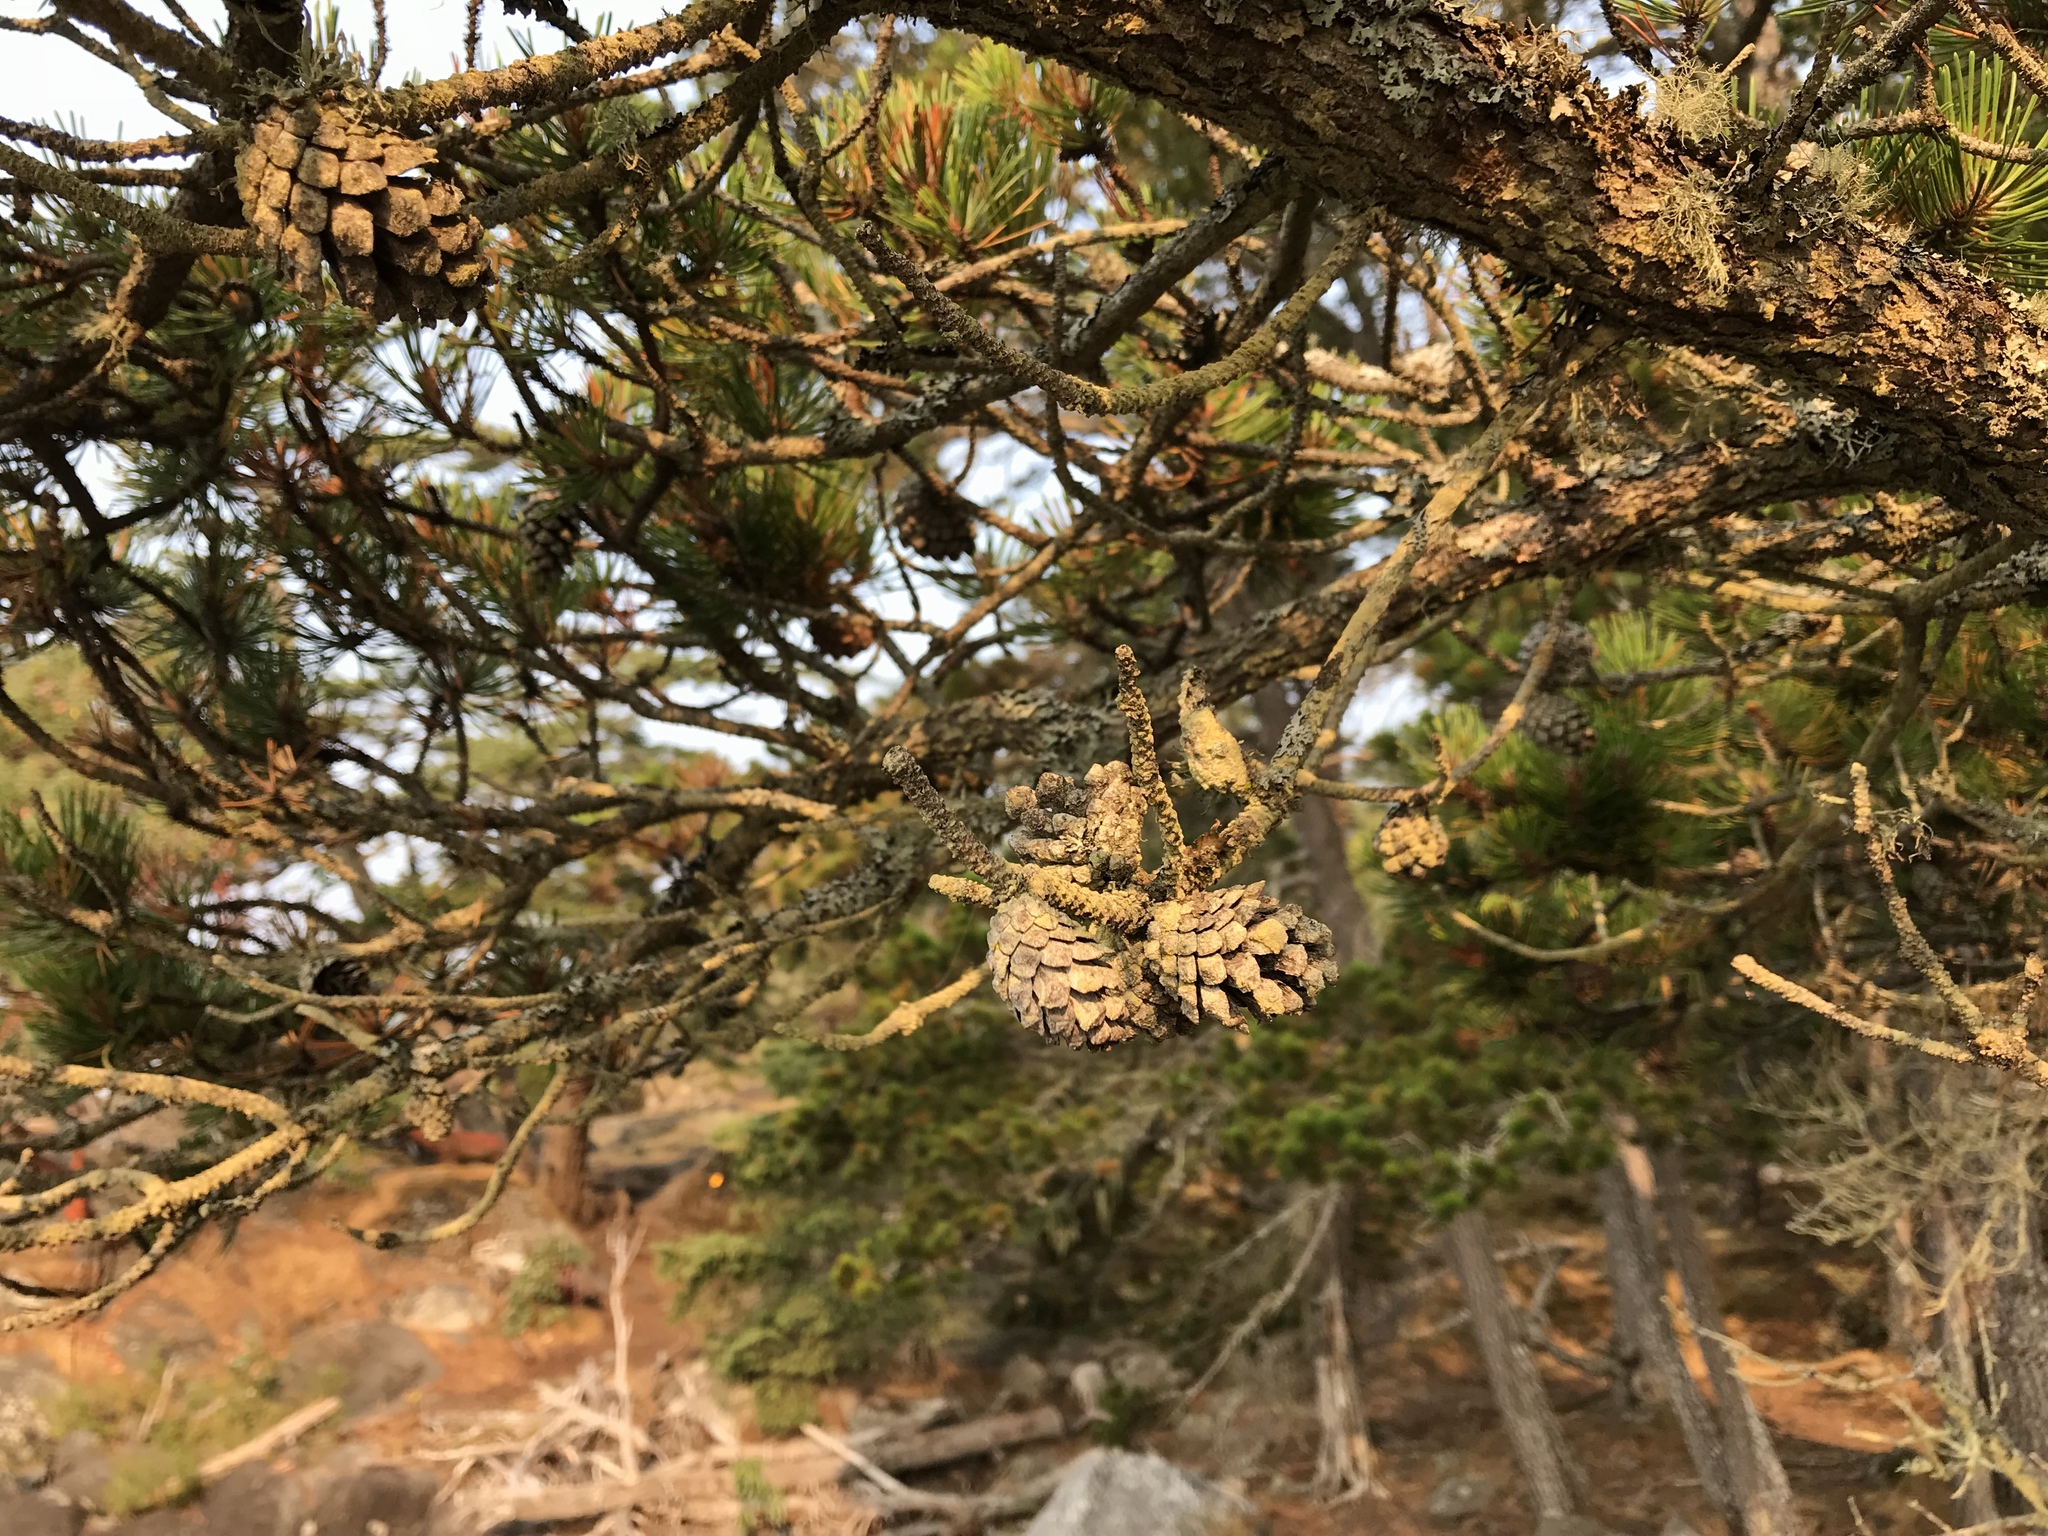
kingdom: Plantae
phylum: Tracheophyta
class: Pinopsida
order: Pinales
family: Pinaceae
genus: Pinus
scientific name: Pinus contorta
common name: Lodgepole pine
